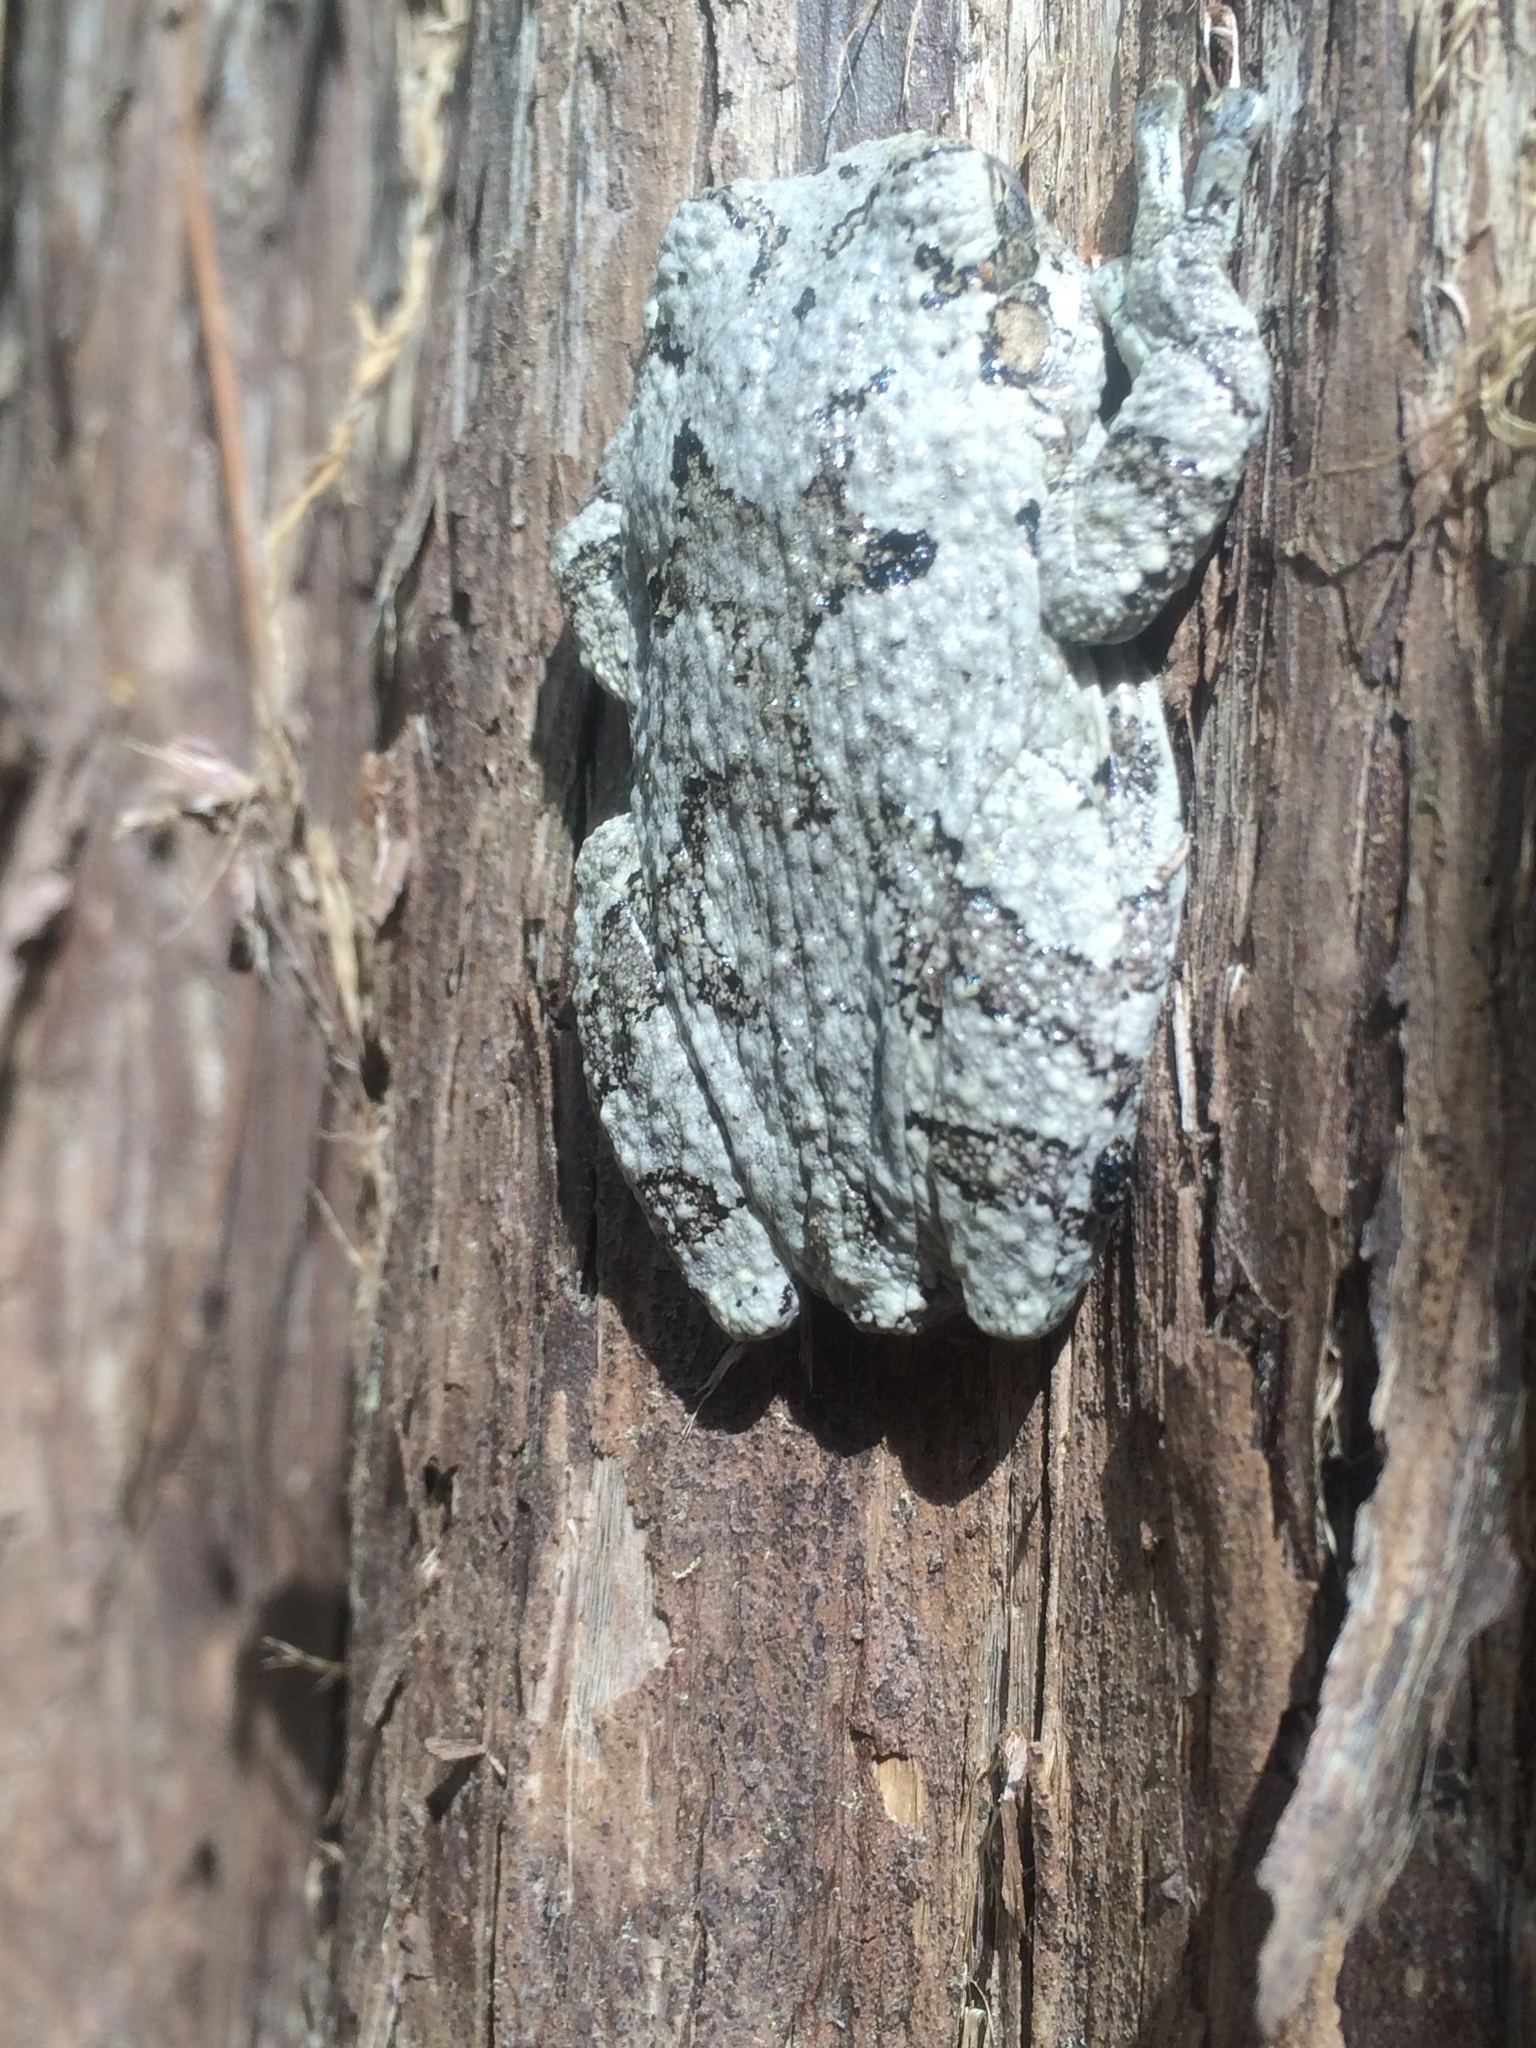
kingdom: Animalia
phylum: Chordata
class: Amphibia
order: Anura
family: Hylidae
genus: Dryophytes
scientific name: Dryophytes chrysoscelis
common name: Cope's gray treefrog
